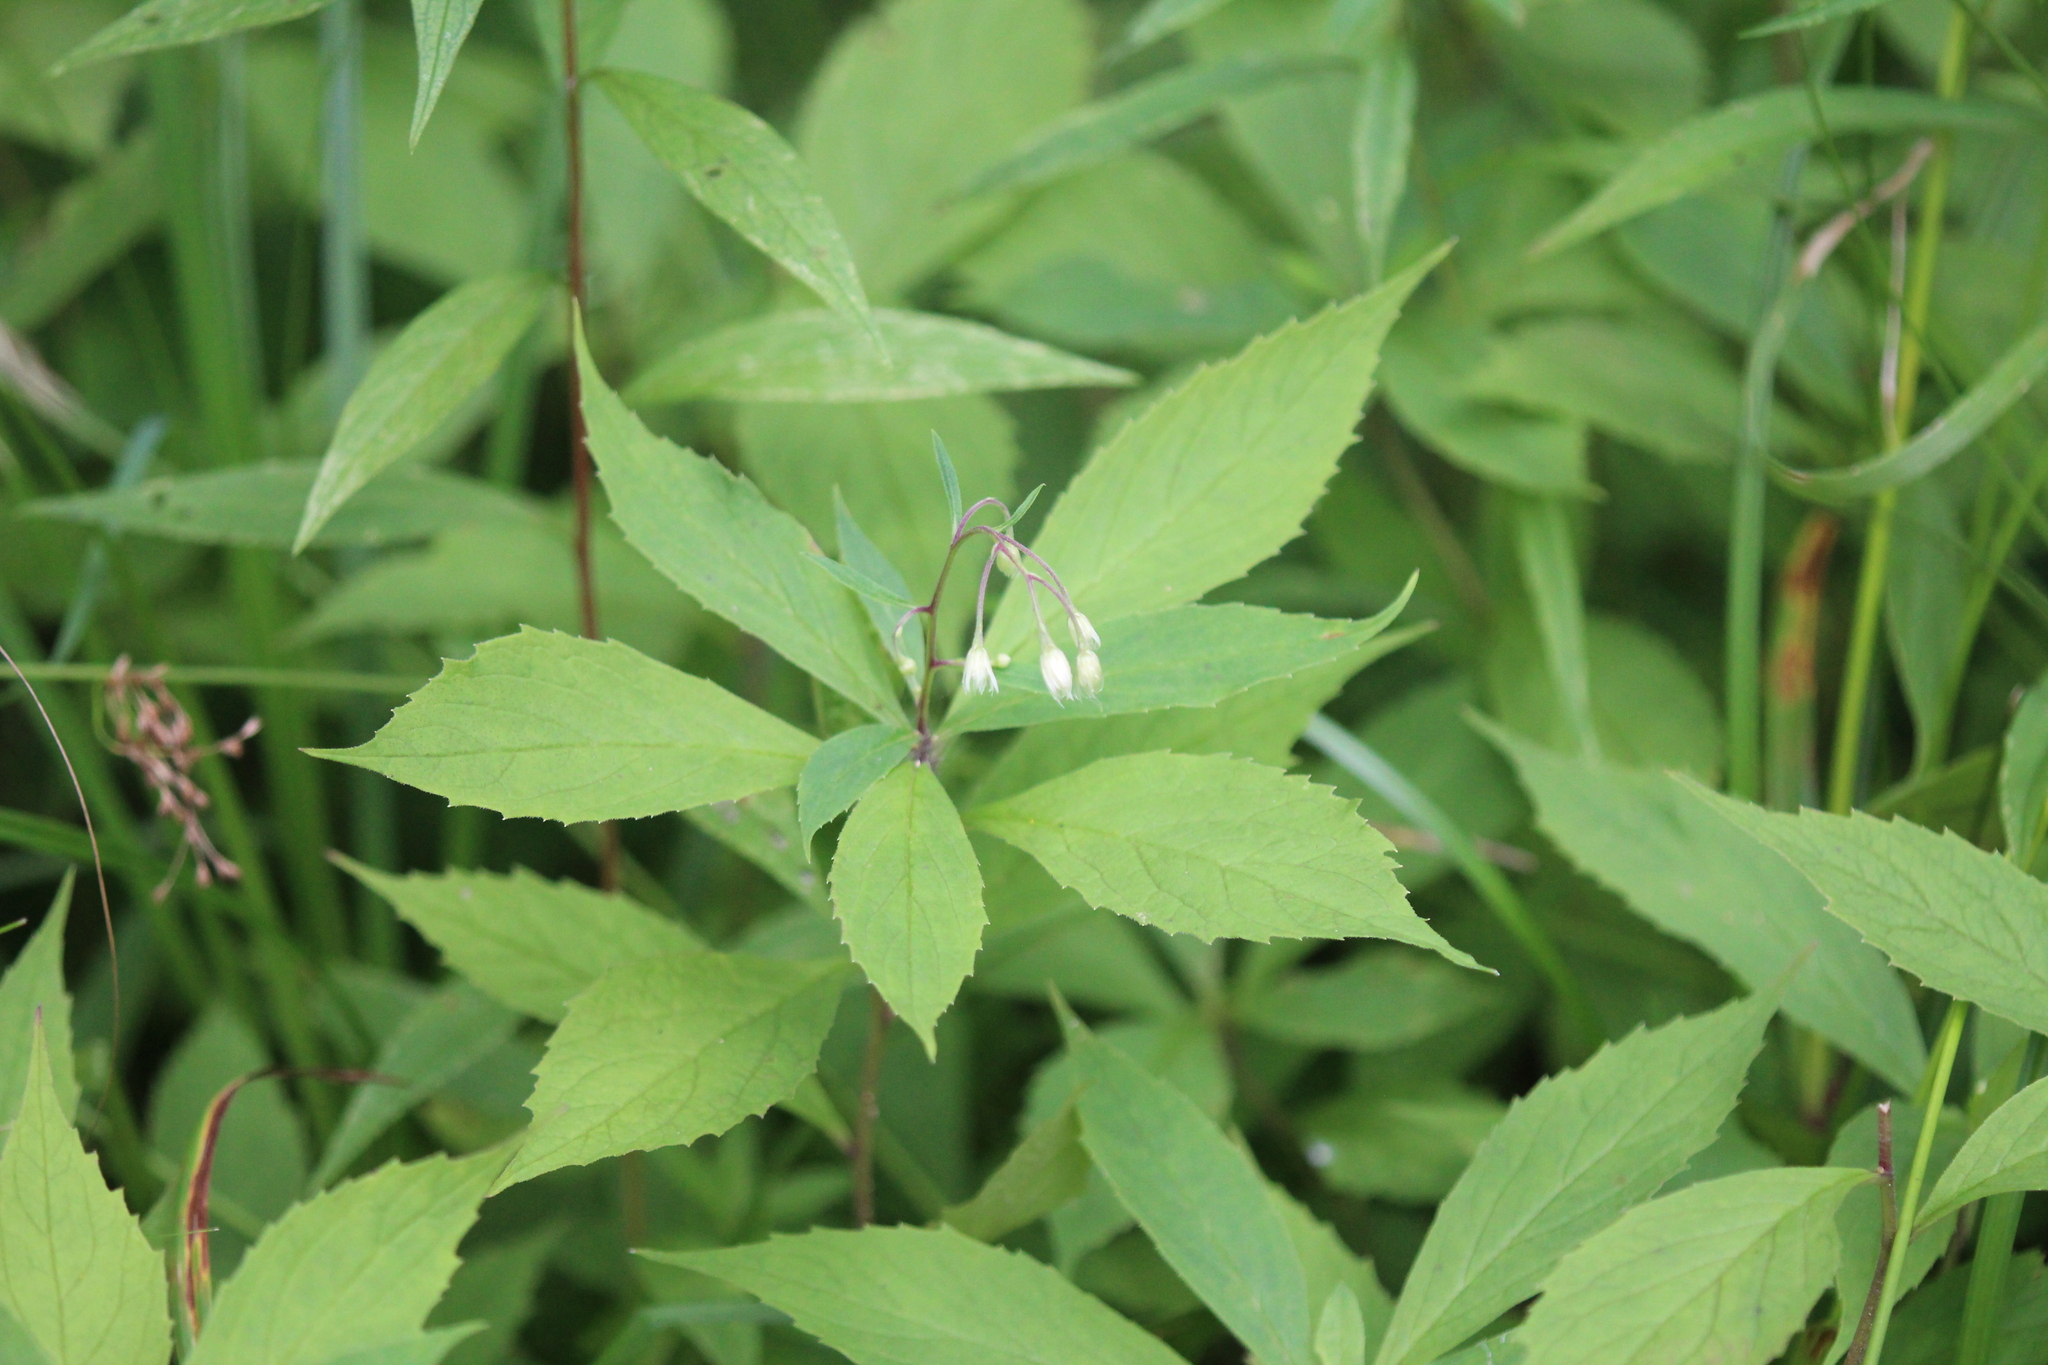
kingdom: Plantae
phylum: Tracheophyta
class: Magnoliopsida
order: Asterales
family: Asteraceae
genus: Oclemena
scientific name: Oclemena acuminata
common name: Mountain aster
